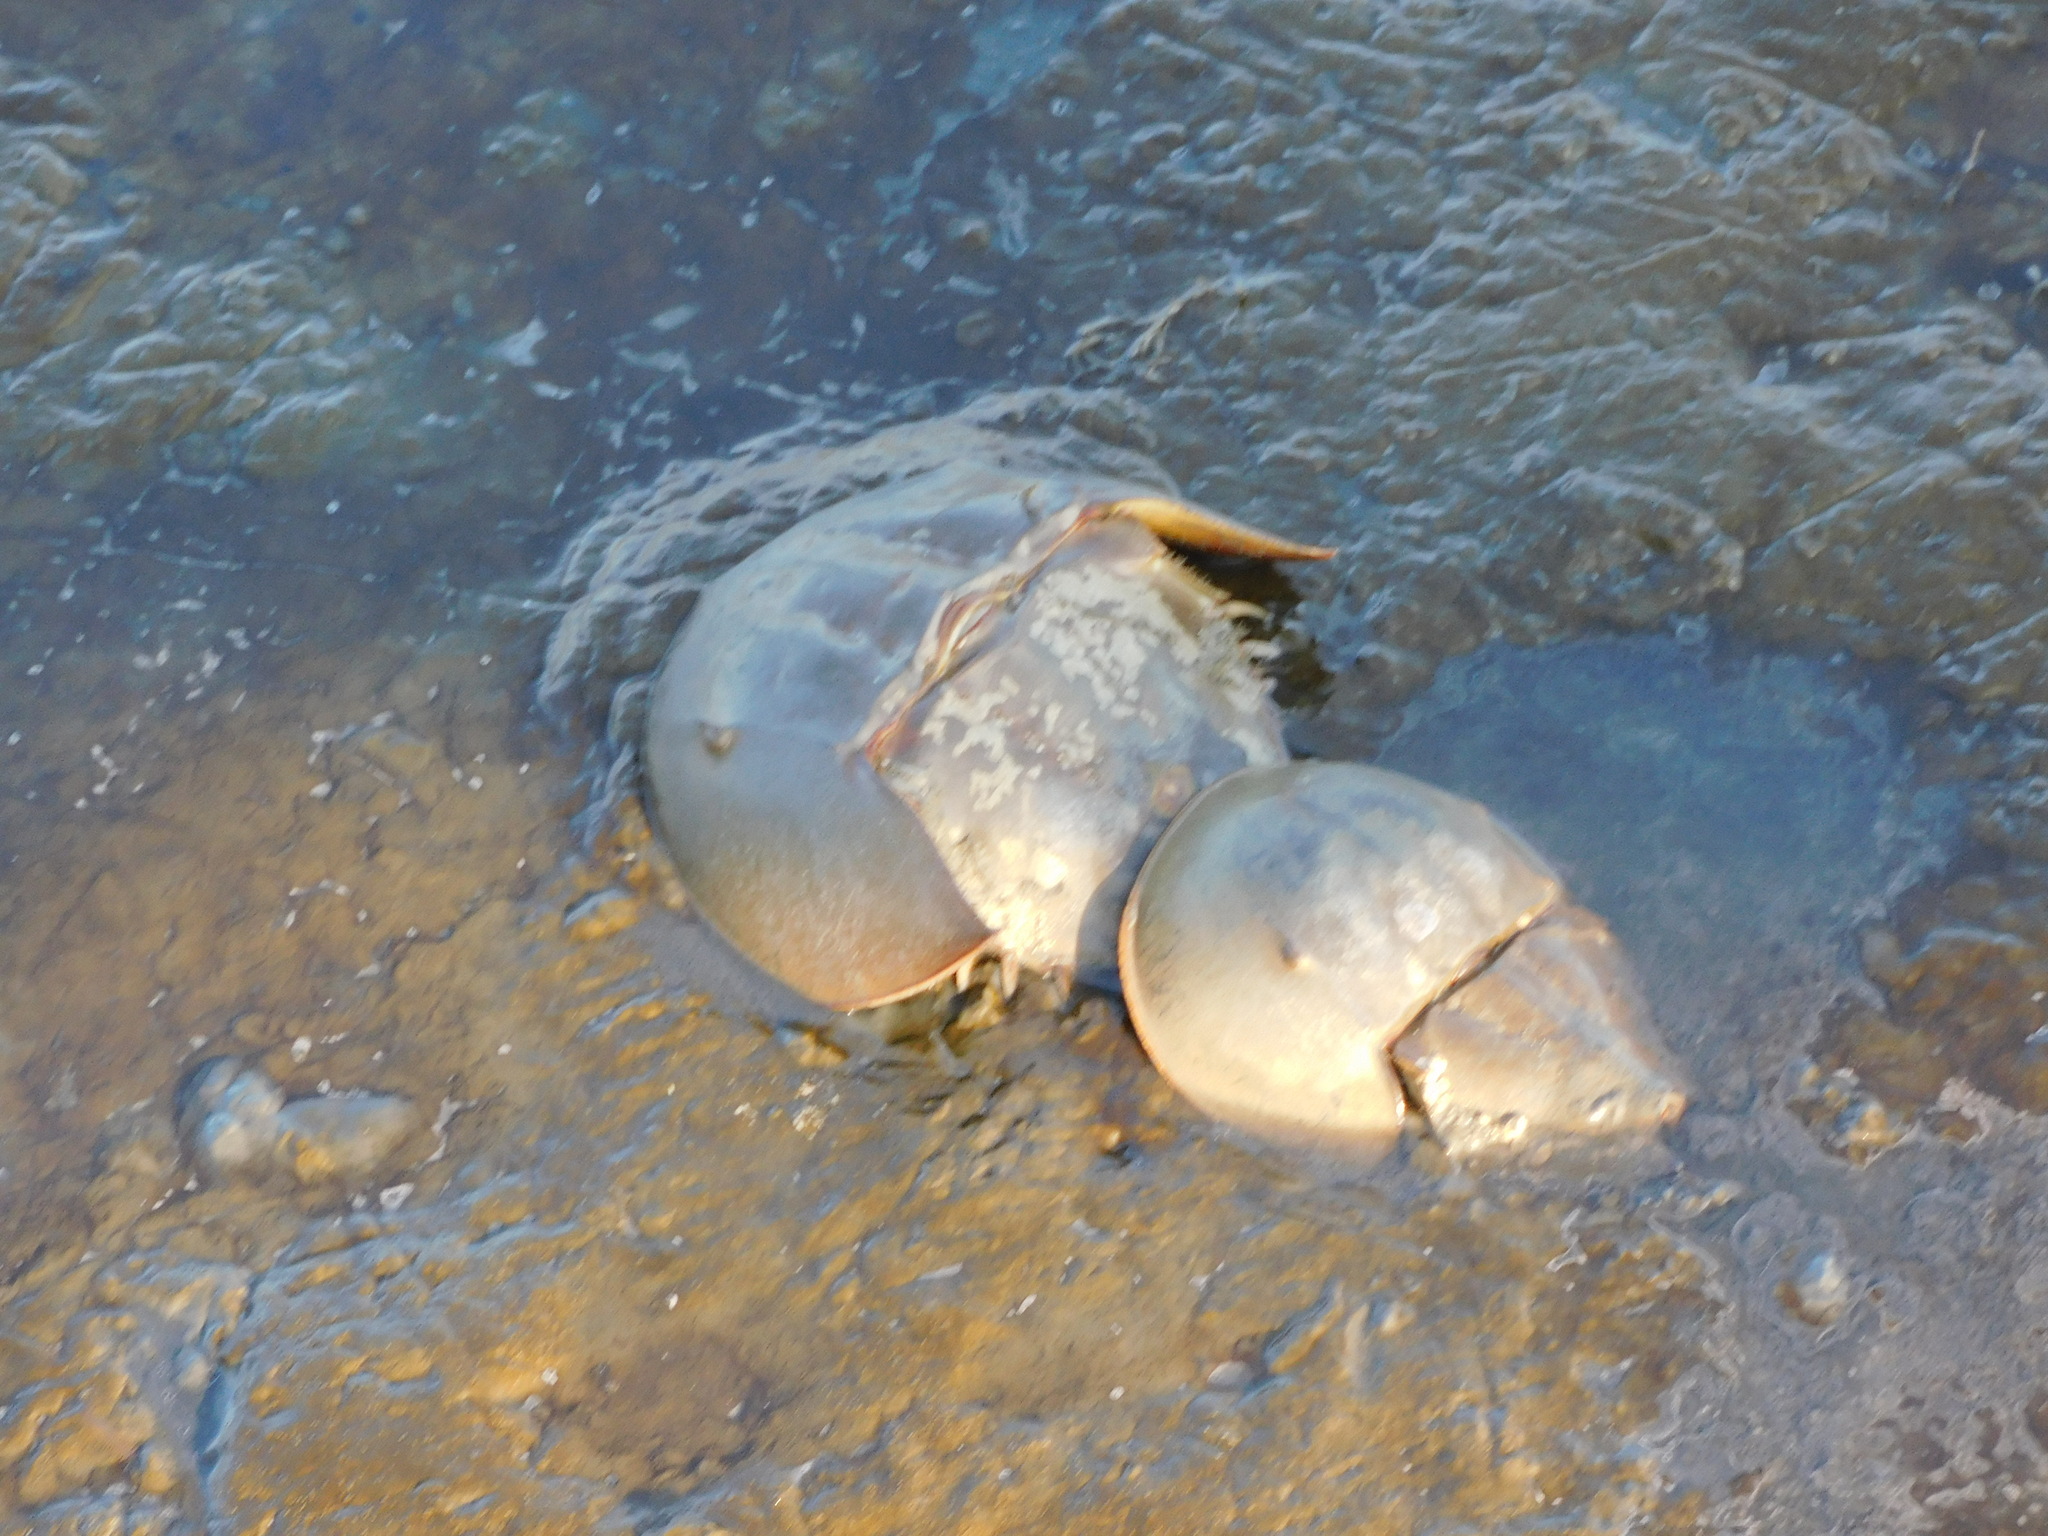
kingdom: Animalia
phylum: Arthropoda
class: Merostomata
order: Xiphosurida
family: Limulidae
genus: Limulus
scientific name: Limulus polyphemus
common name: Horseshoe crab
